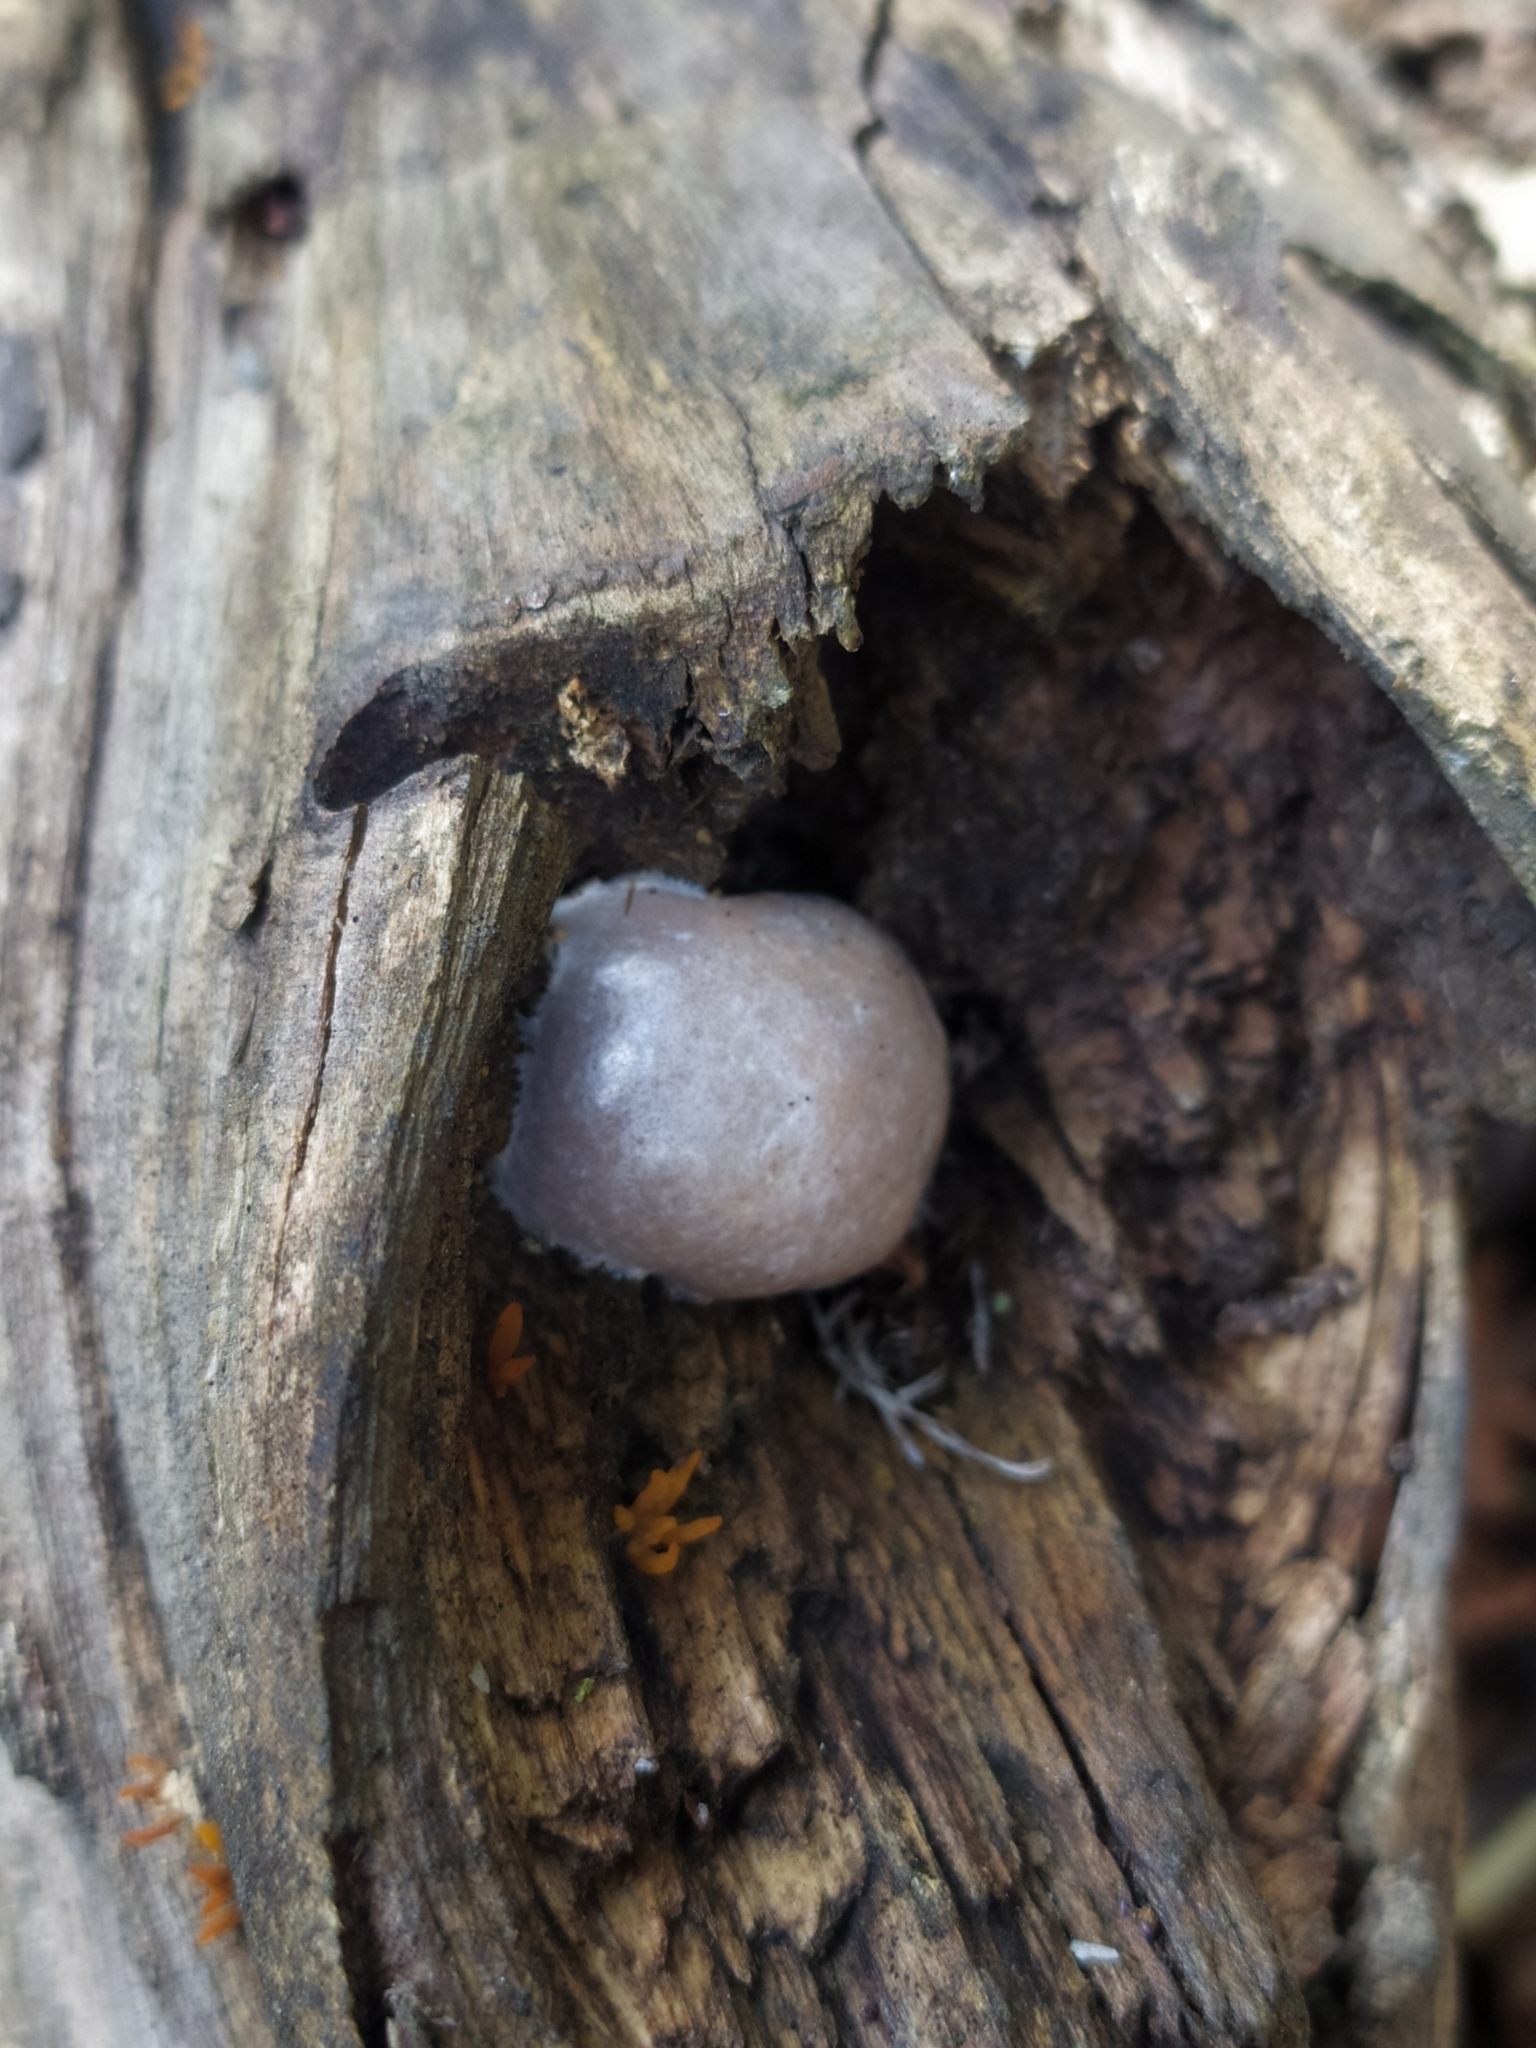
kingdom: Protozoa
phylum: Mycetozoa
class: Myxomycetes
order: Cribrariales
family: Tubiferaceae
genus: Reticularia
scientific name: Reticularia lycoperdon
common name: False puffball
